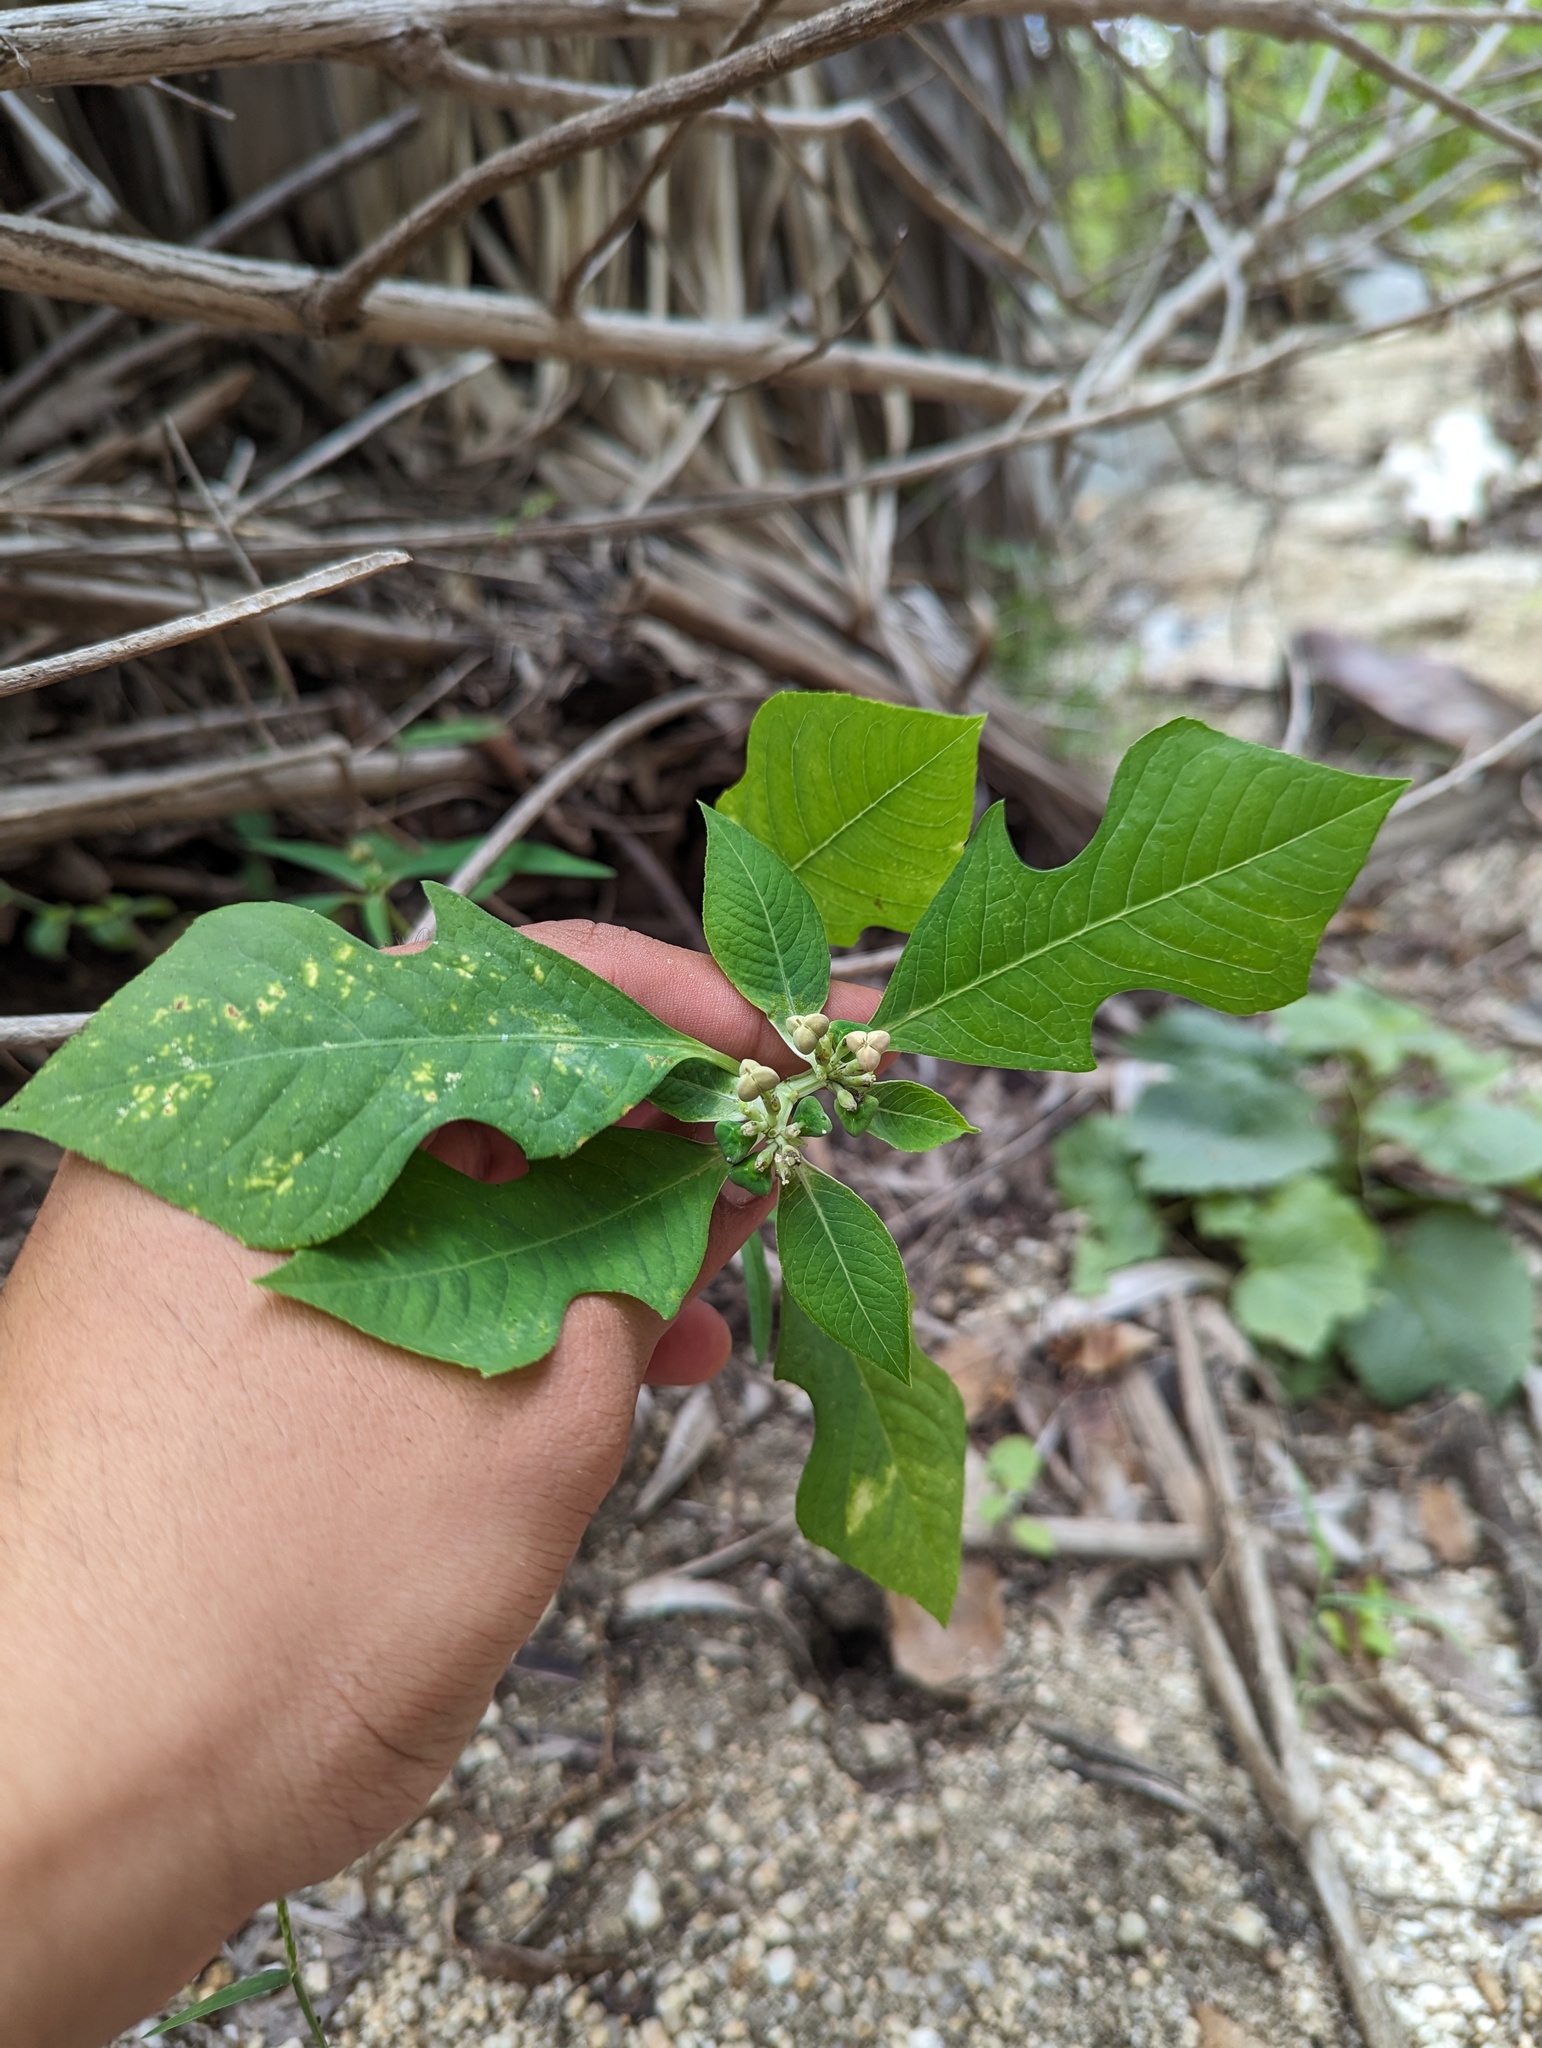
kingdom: Plantae
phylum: Tracheophyta
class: Magnoliopsida
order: Malpighiales
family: Euphorbiaceae
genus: Euphorbia
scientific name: Euphorbia heterophylla
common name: Mexican fireplant
